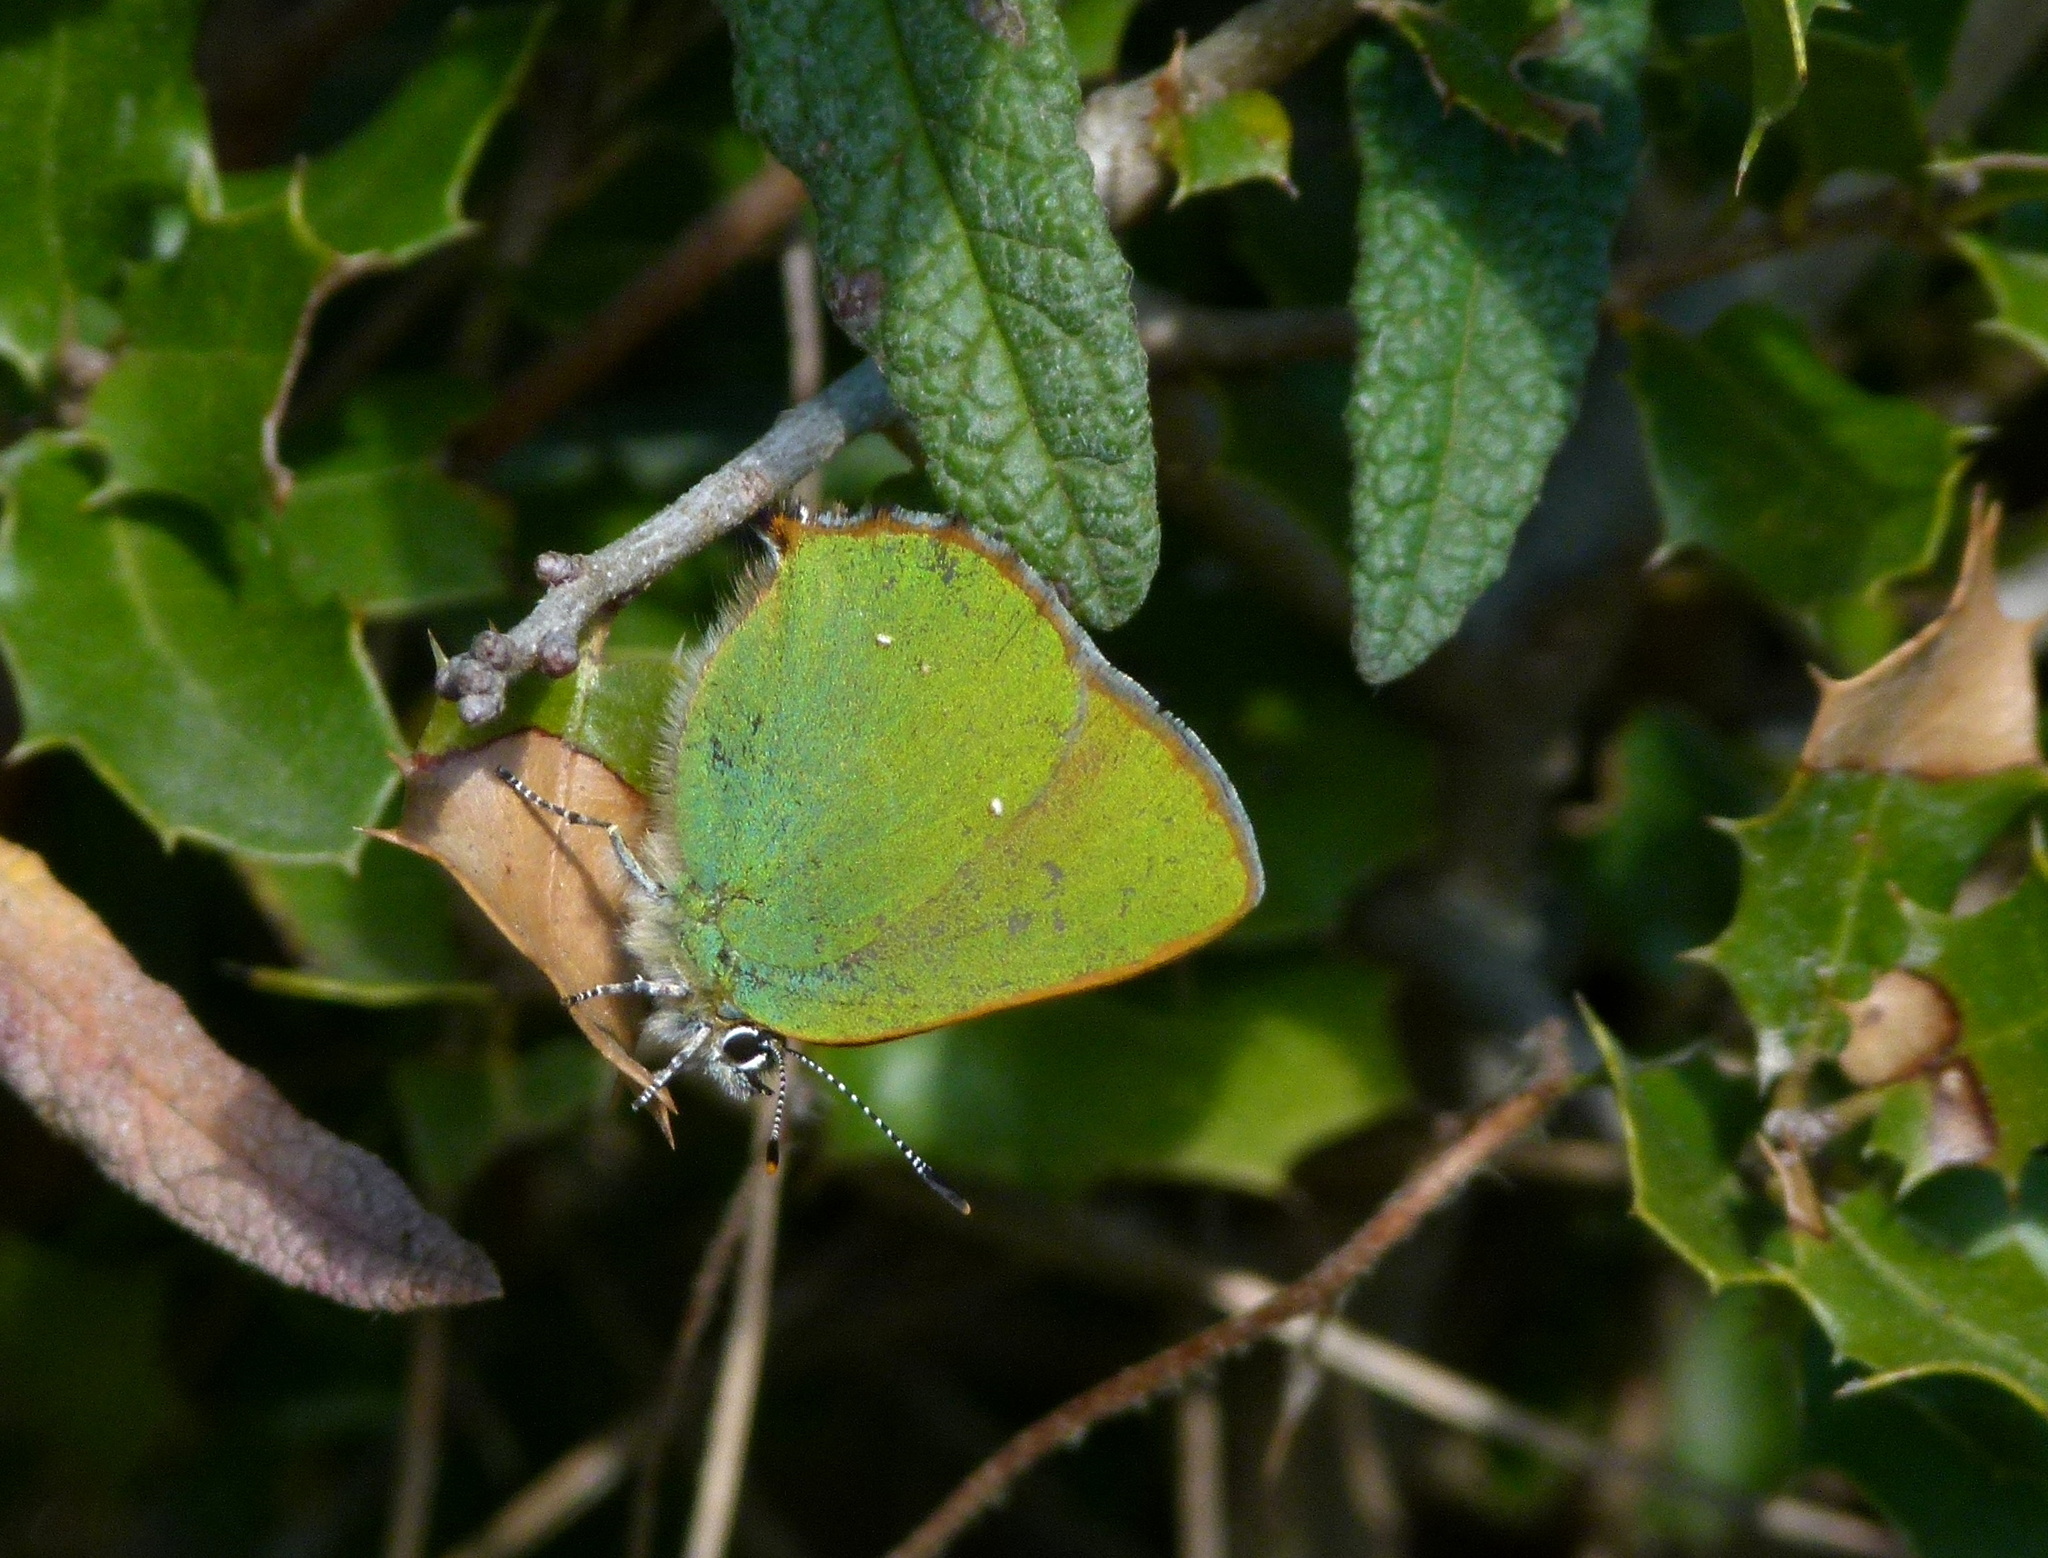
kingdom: Animalia
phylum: Arthropoda
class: Insecta
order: Lepidoptera
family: Lycaenidae
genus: Callophrys
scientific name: Callophrys rubi
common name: Green hairstreak
